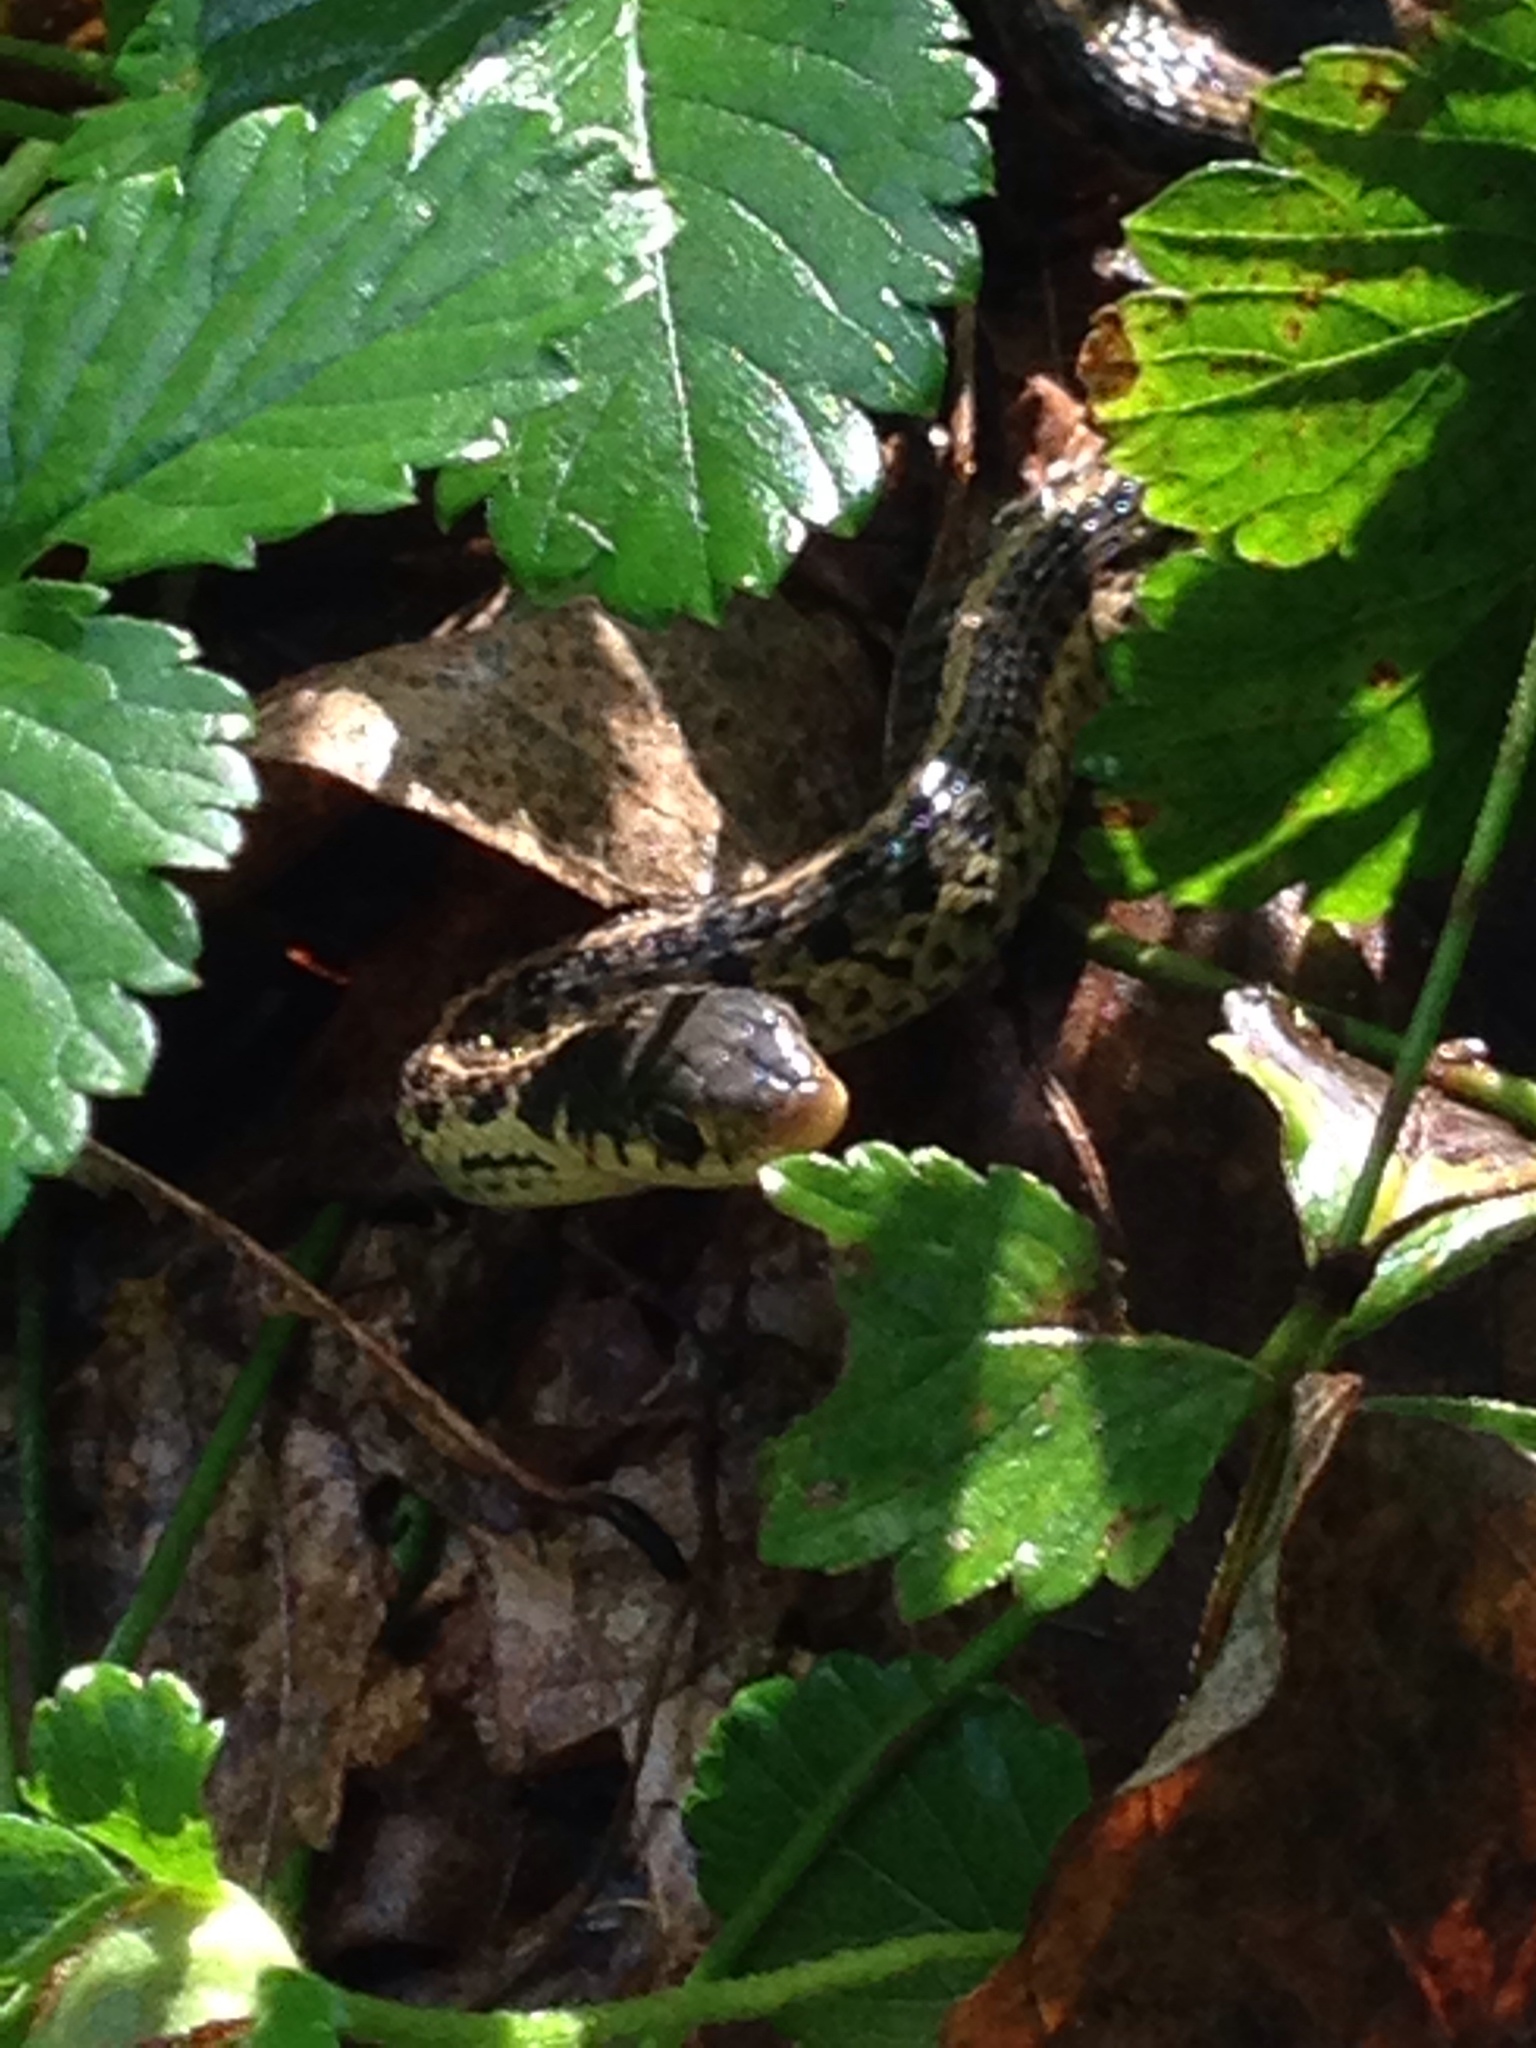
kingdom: Animalia
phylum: Chordata
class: Squamata
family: Colubridae
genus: Thamnophis
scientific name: Thamnophis sirtalis
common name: Common garter snake
